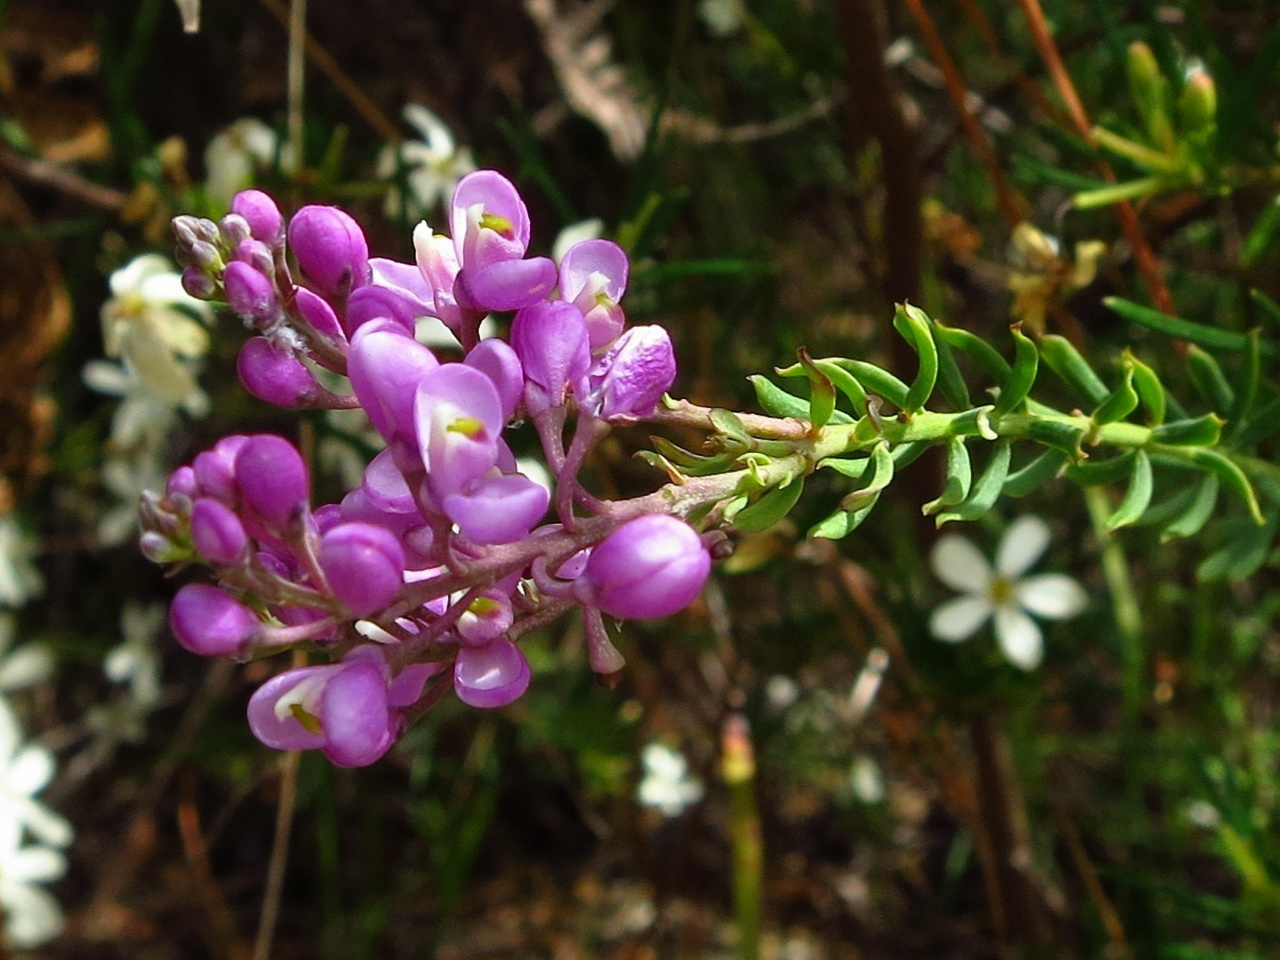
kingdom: Plantae
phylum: Tracheophyta
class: Magnoliopsida
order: Fabales
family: Polygalaceae
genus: Comesperma
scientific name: Comesperma ericinum
